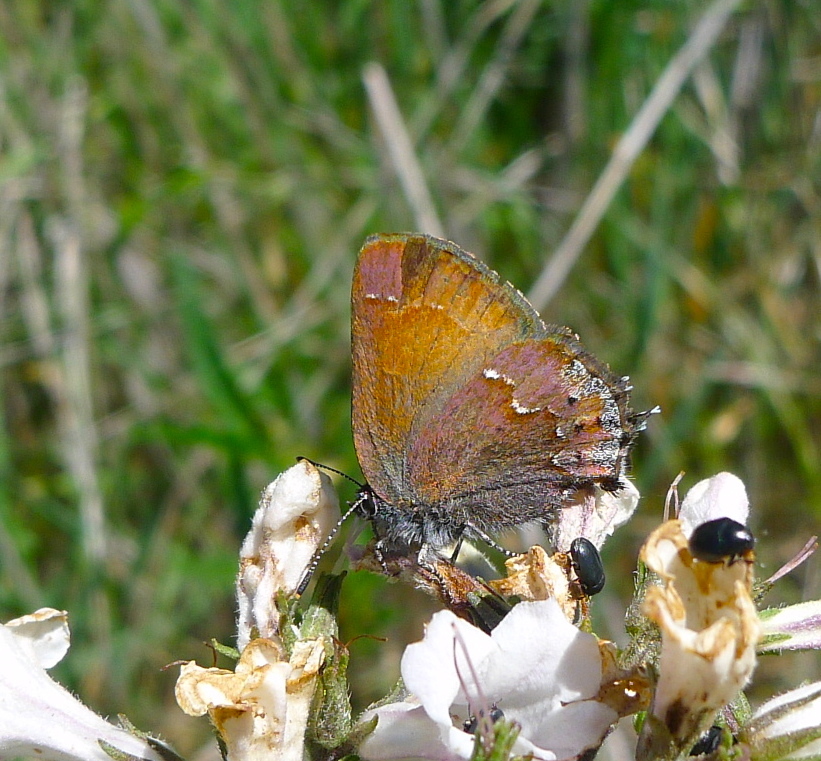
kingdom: Animalia
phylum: Arthropoda
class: Insecta
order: Lepidoptera
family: Lycaenidae
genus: Callophrys
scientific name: Callophrys muiri
